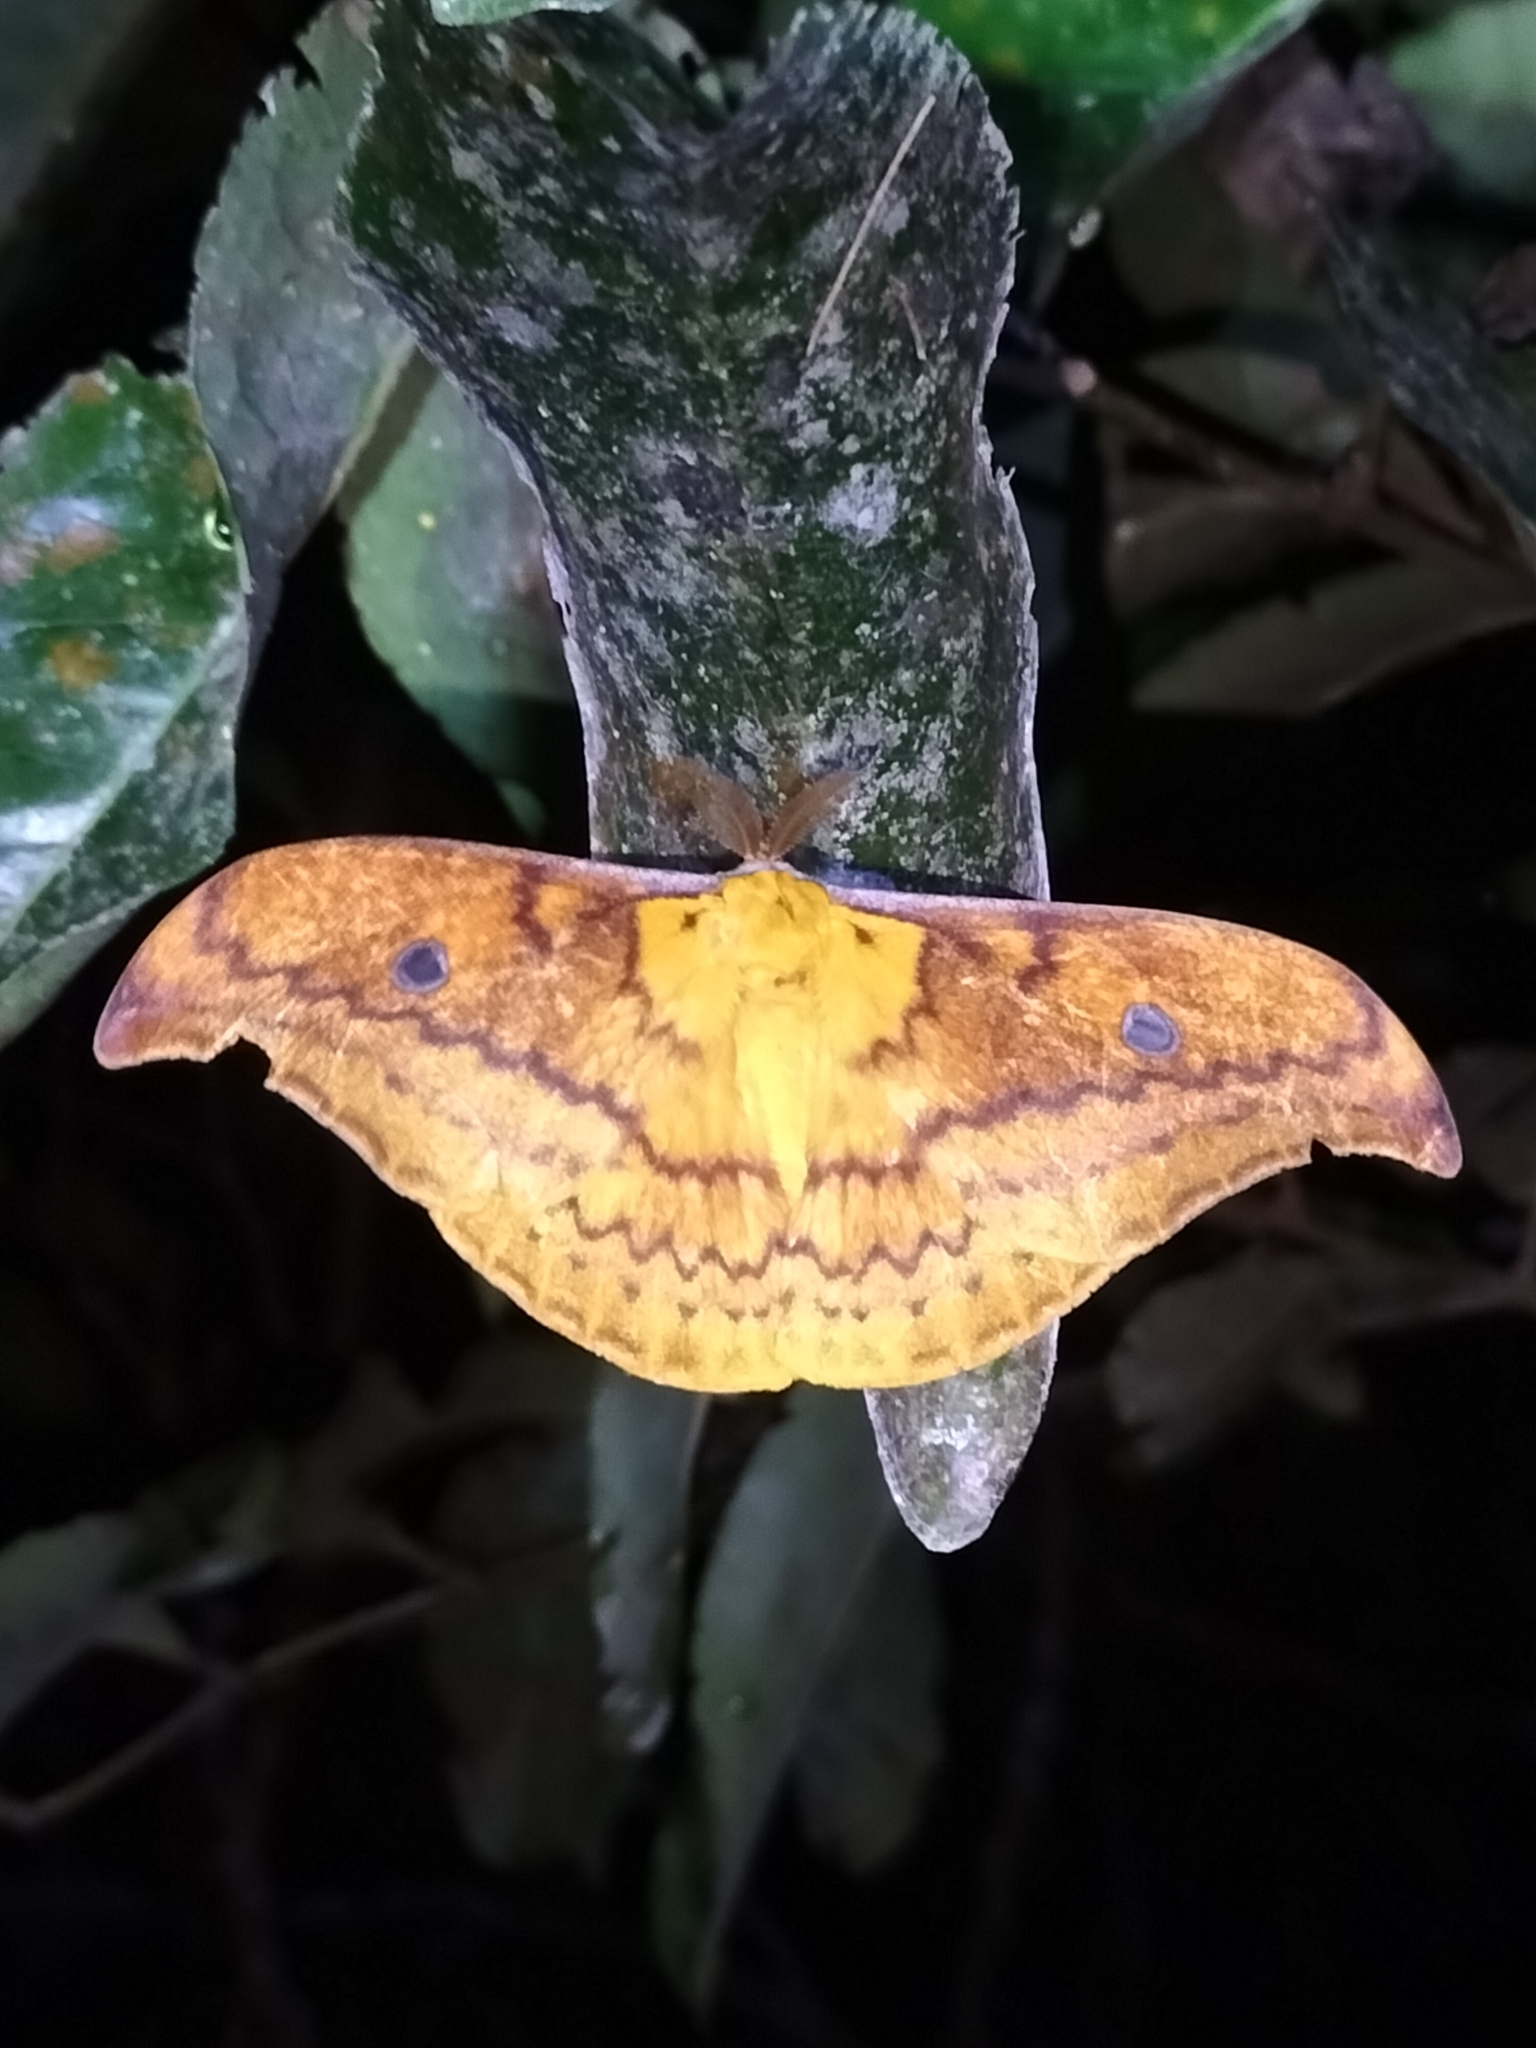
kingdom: Animalia
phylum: Arthropoda
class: Insecta
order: Lepidoptera
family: Saturniidae
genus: Syntherata
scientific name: Syntherata leonae
